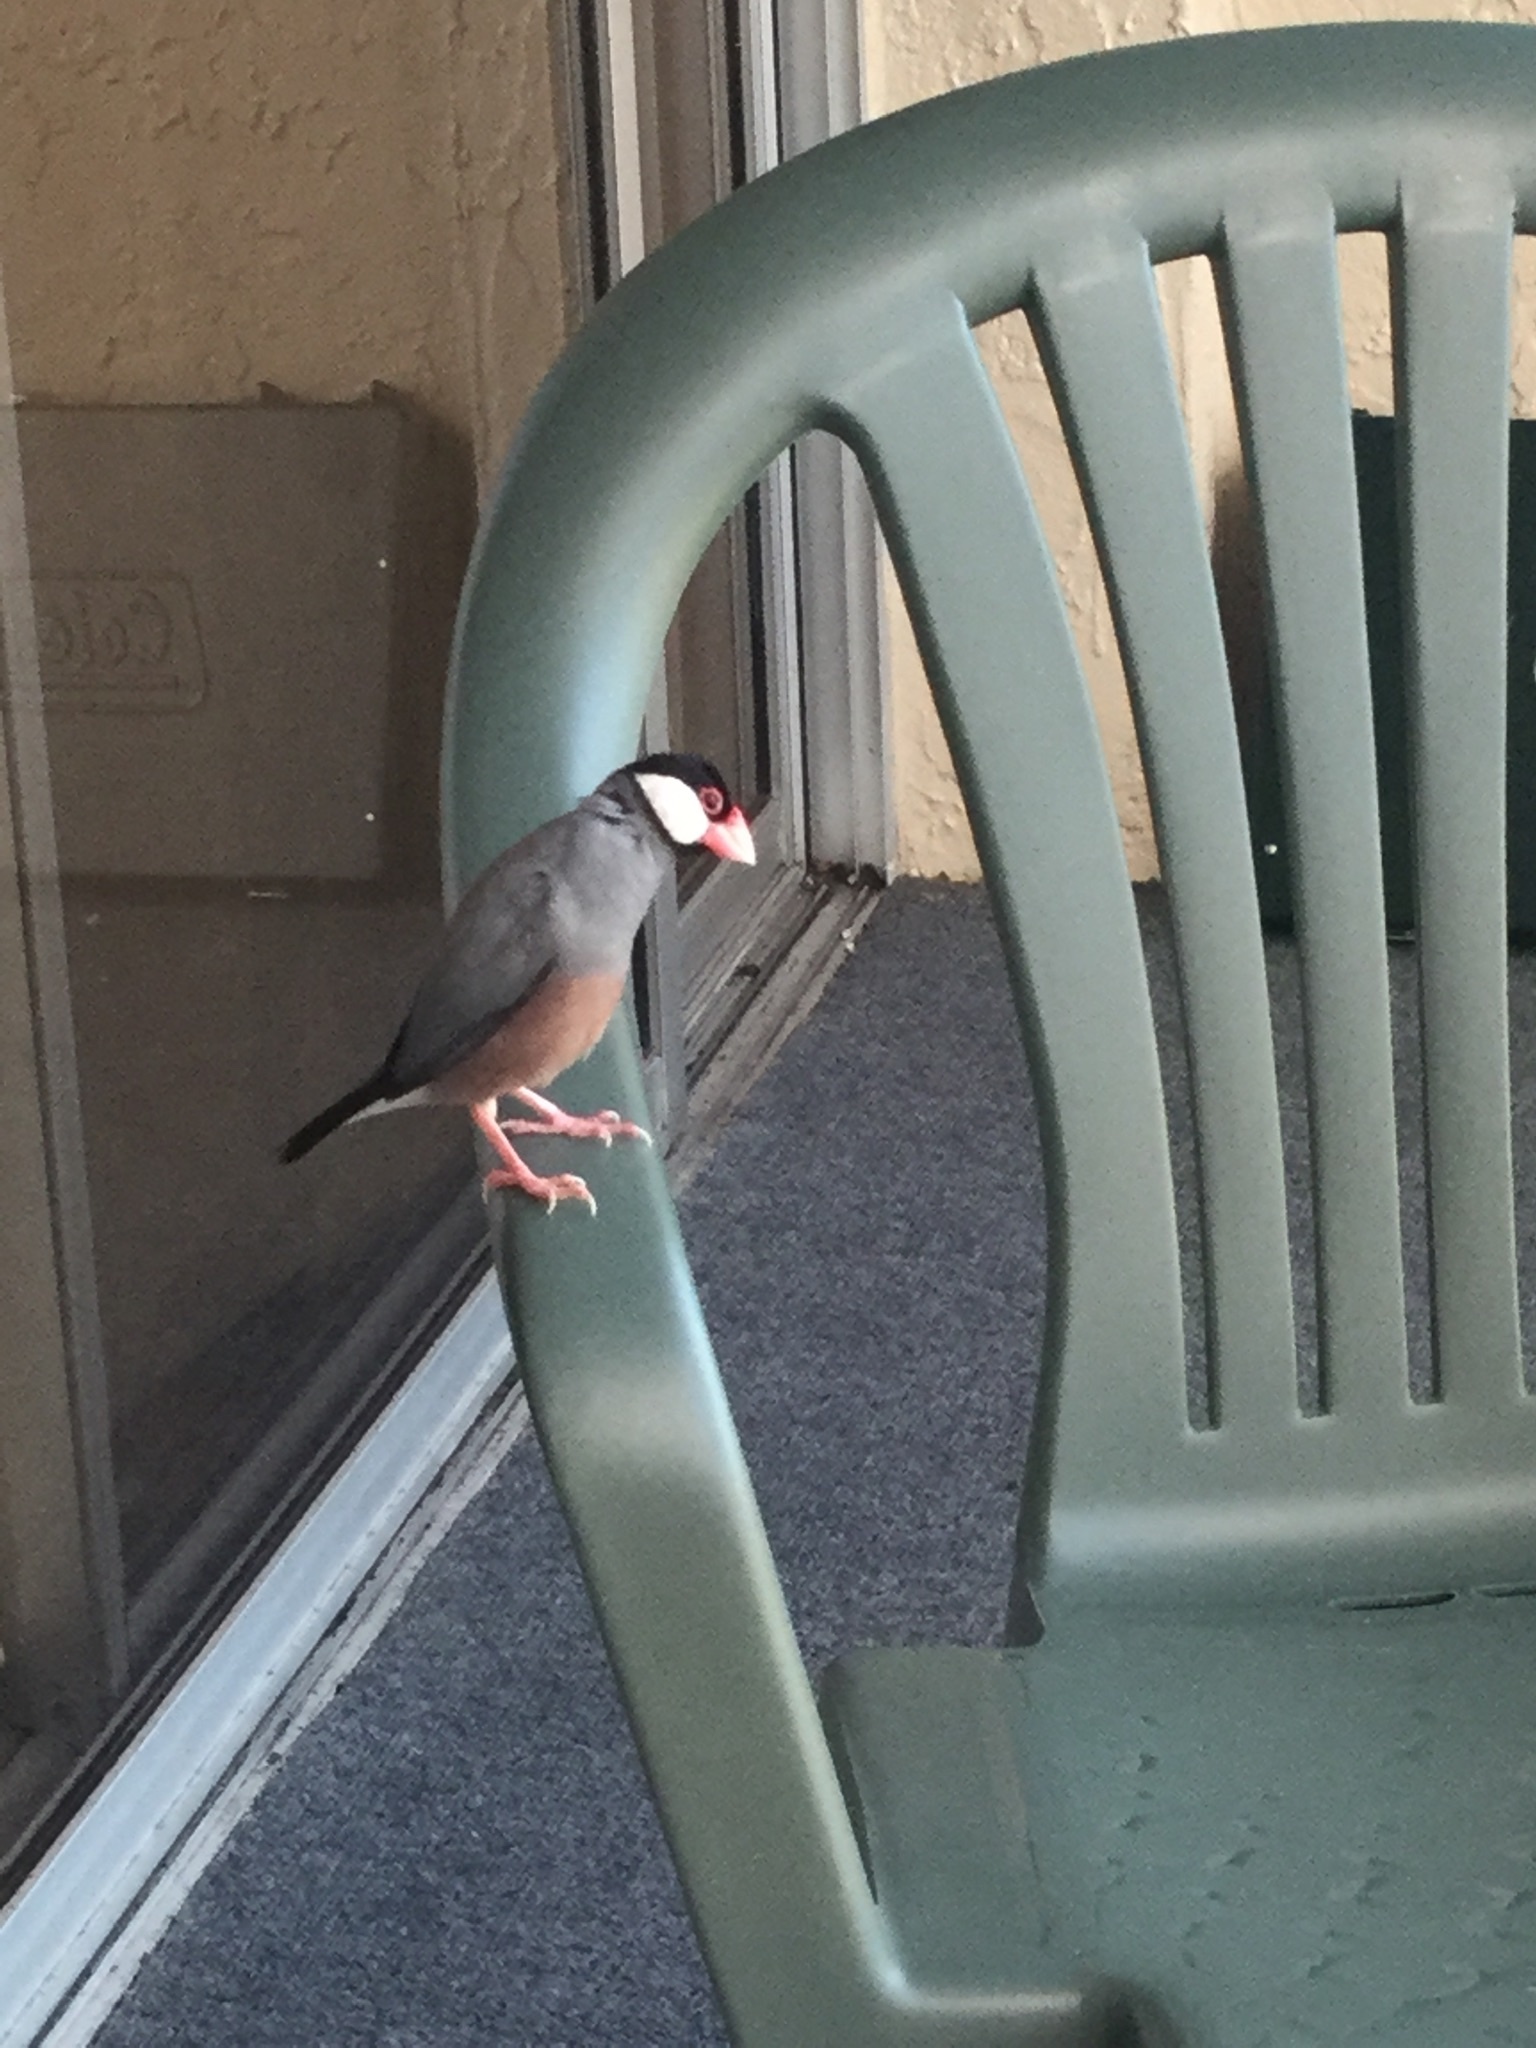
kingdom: Animalia
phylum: Chordata
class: Aves
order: Passeriformes
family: Estrildidae
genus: Lonchura
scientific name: Lonchura oryzivora
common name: Java sparrow
